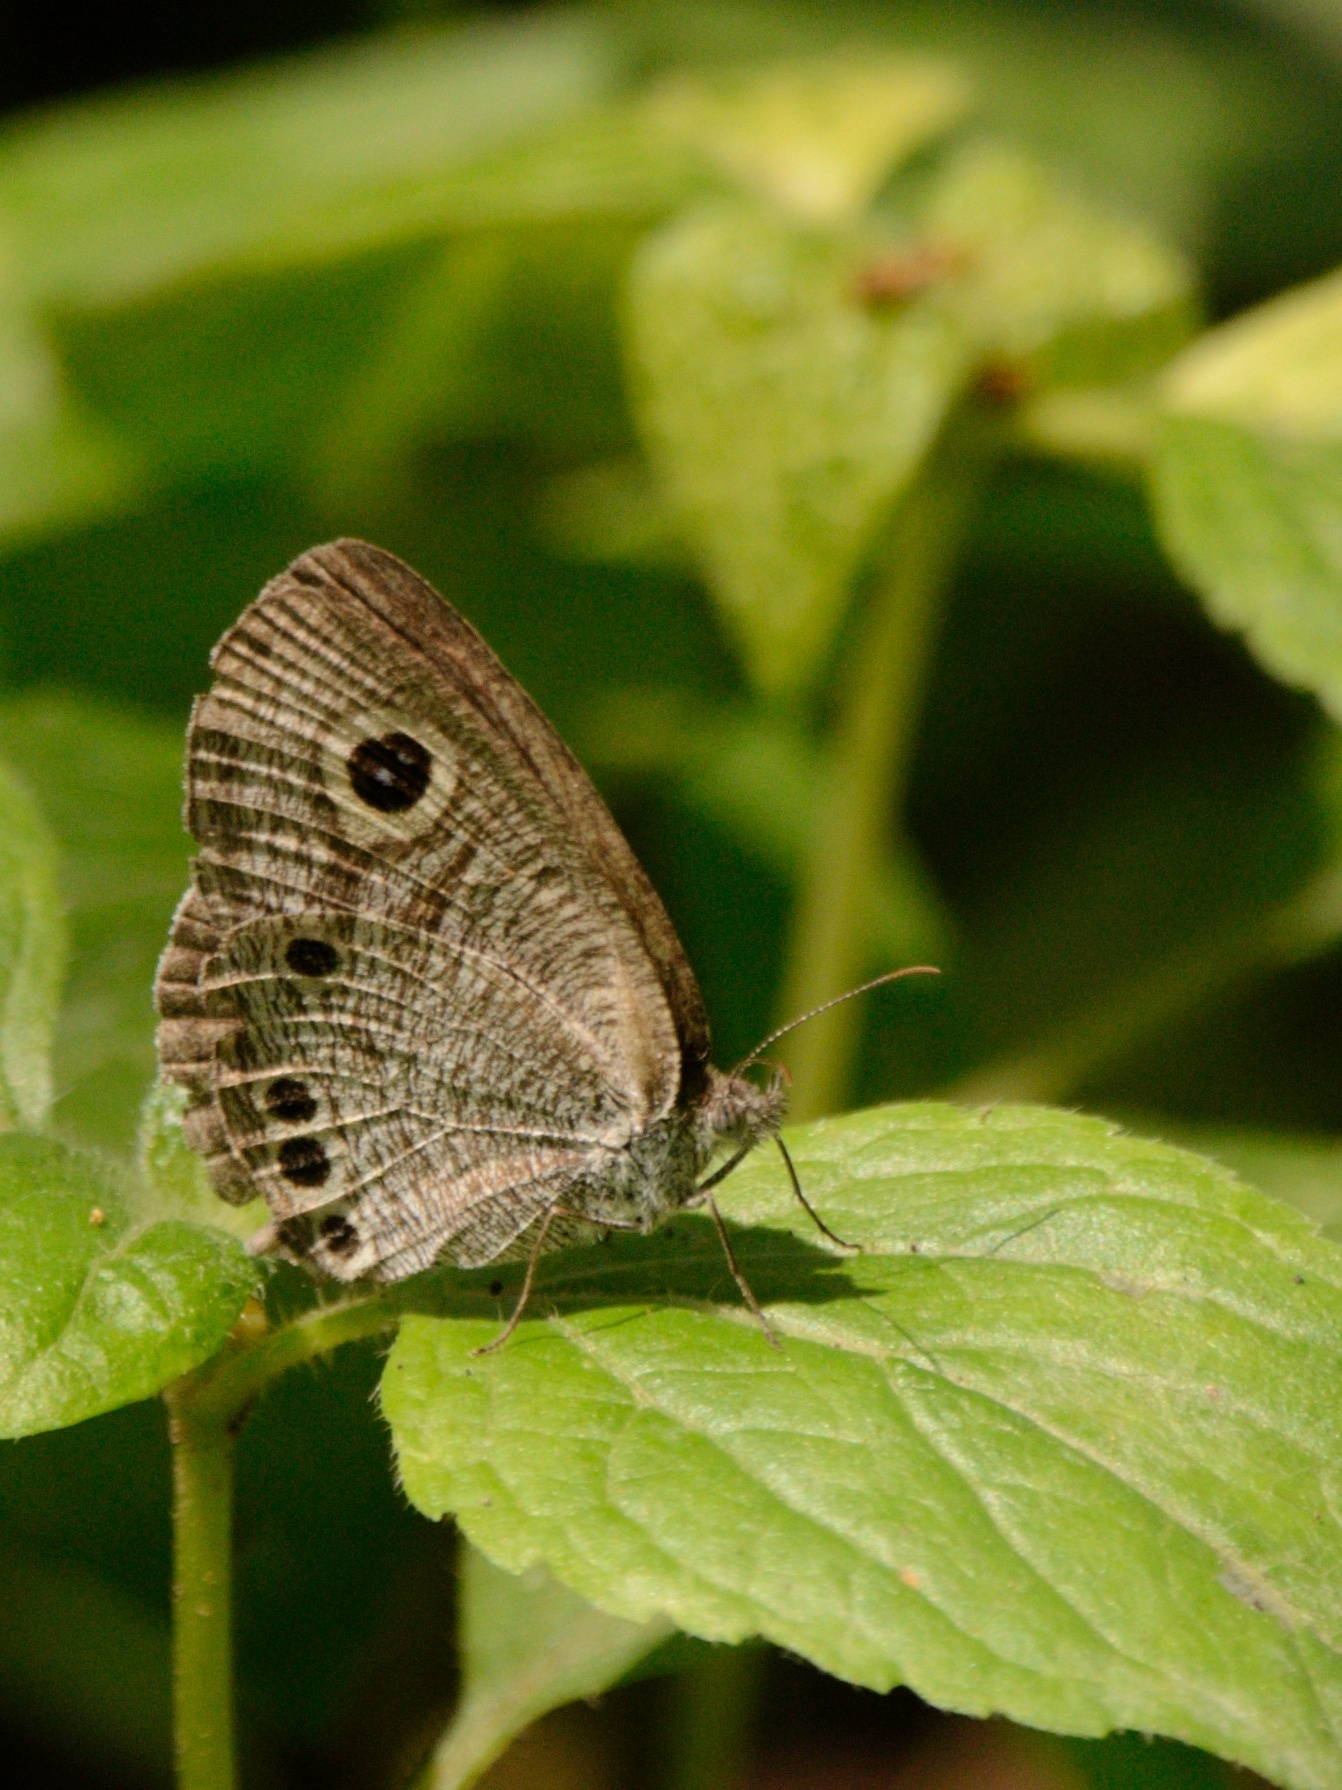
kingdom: Animalia
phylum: Arthropoda
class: Insecta
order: Lepidoptera
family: Nymphalidae
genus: Ypthima
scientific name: Ypthima huebneri
